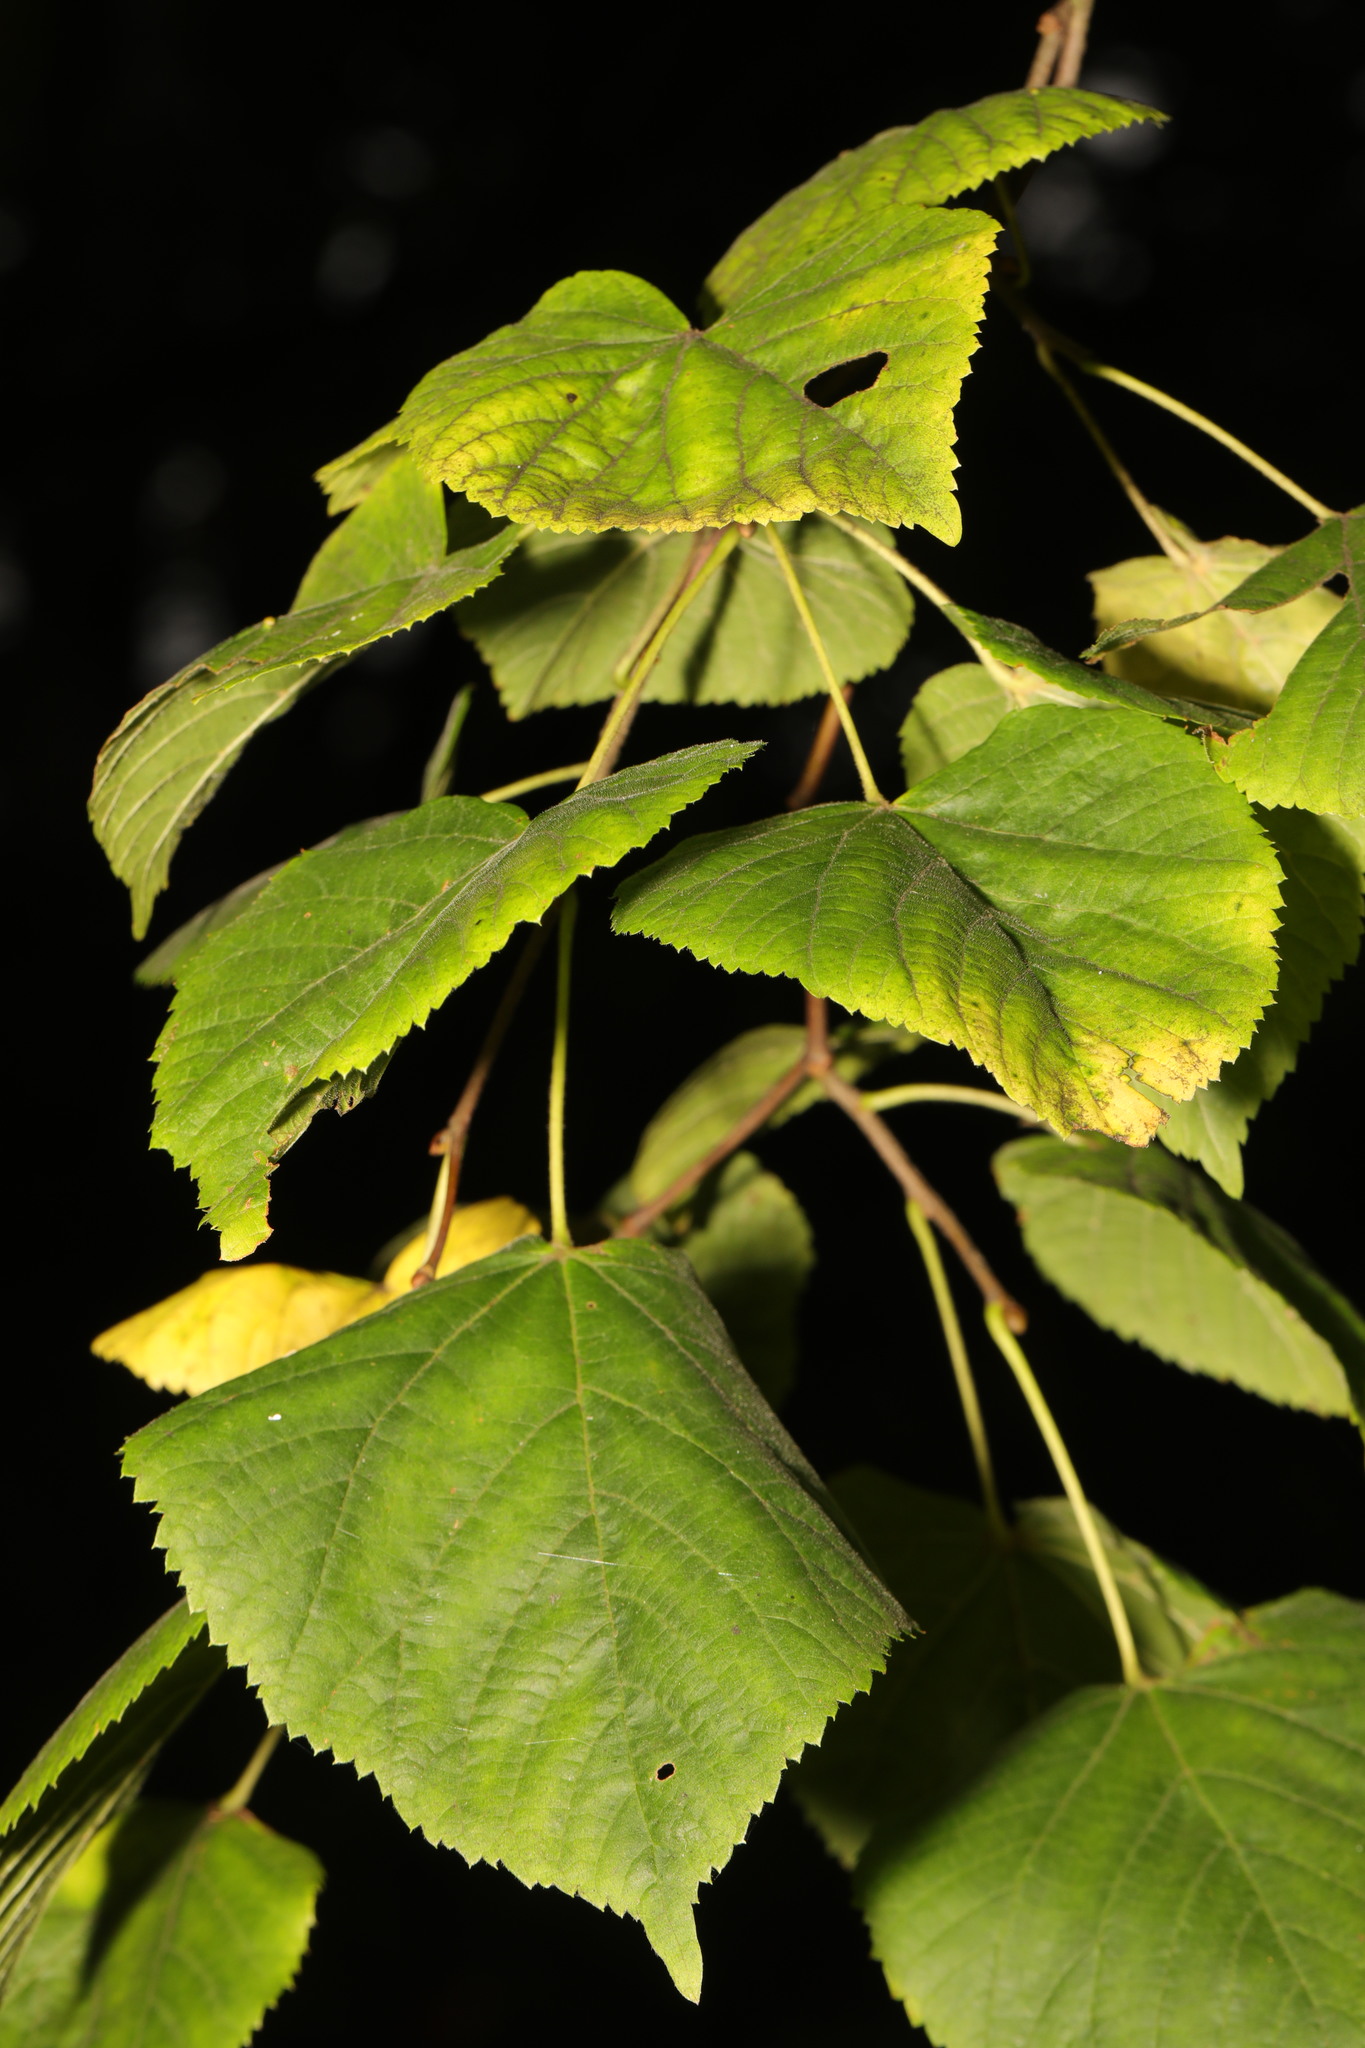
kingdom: Plantae
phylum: Tracheophyta
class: Magnoliopsida
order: Malvales
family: Malvaceae
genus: Tilia
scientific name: Tilia europaea
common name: European linden
